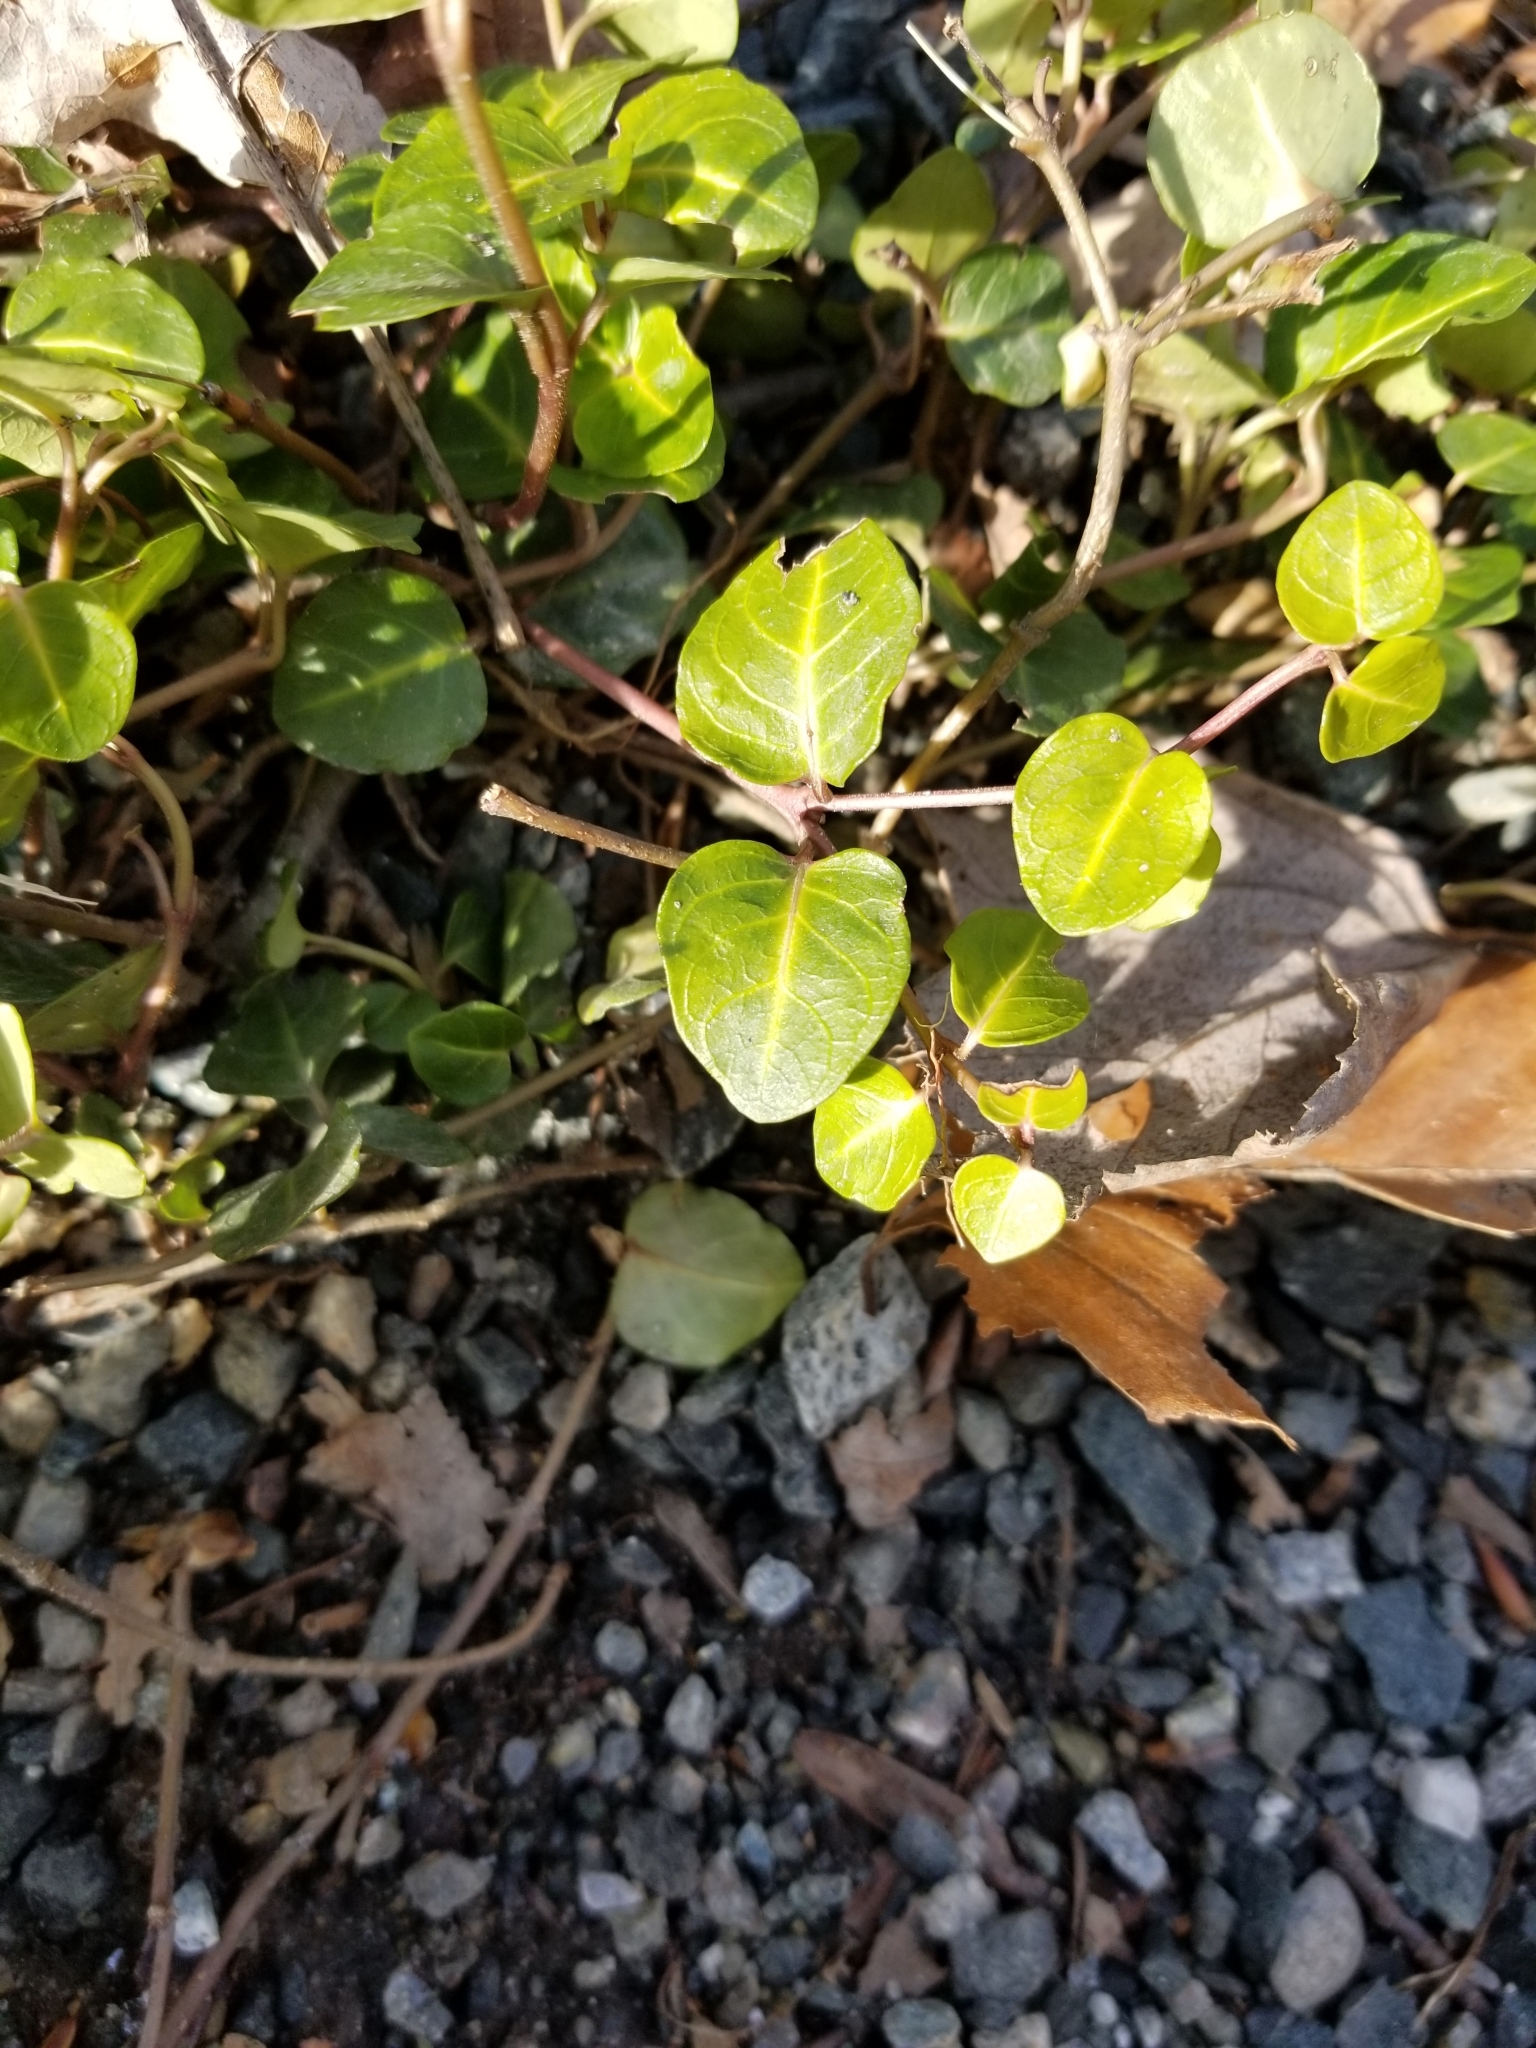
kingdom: Plantae
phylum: Tracheophyta
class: Magnoliopsida
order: Gentianales
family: Rubiaceae
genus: Mitchella
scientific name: Mitchella repens
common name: Partridge-berry
